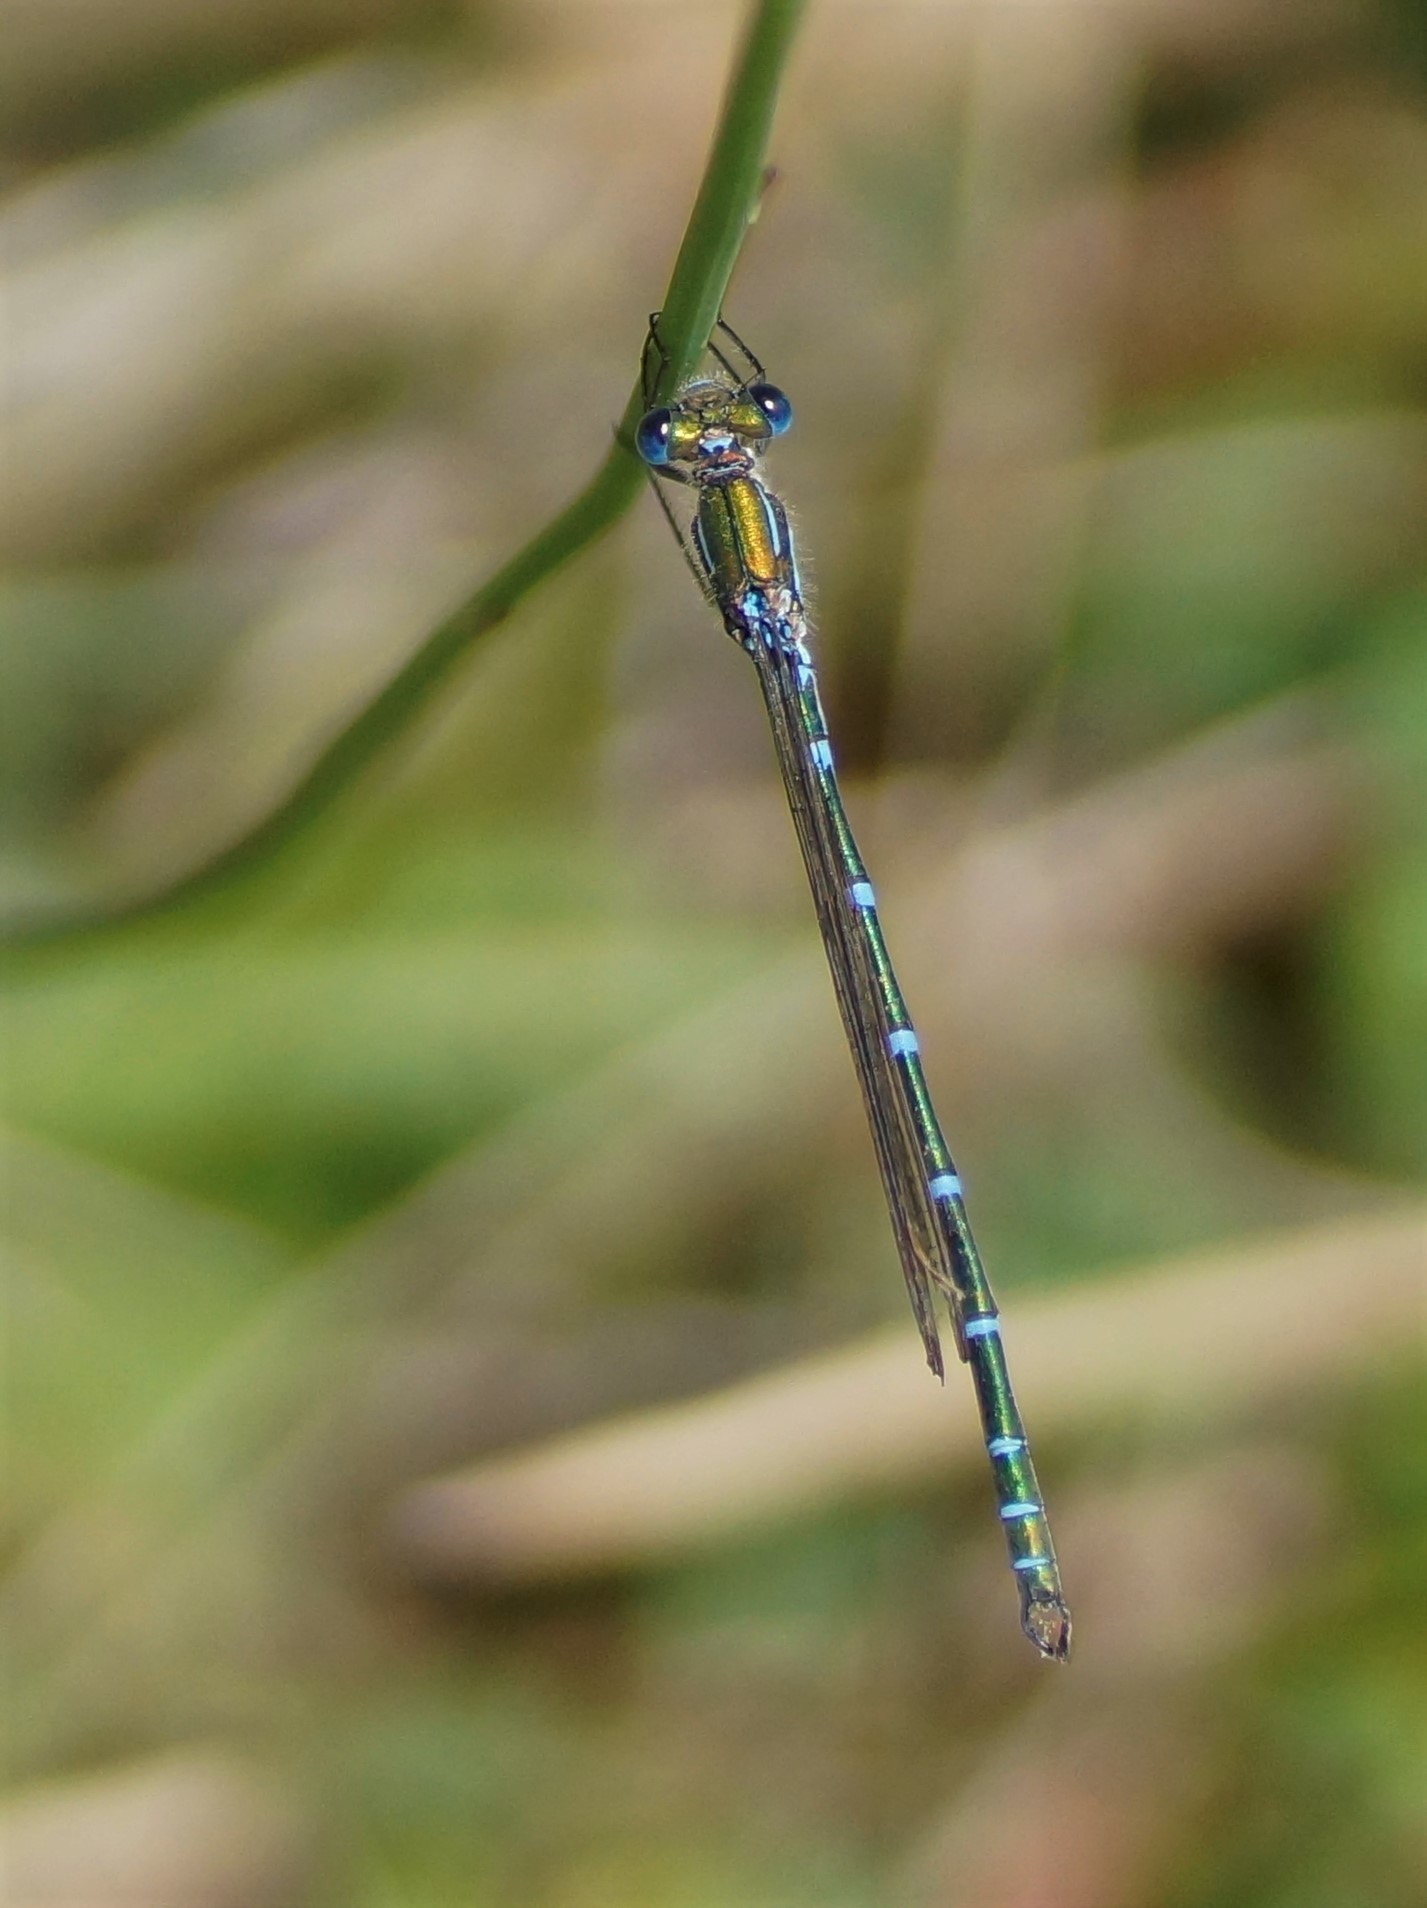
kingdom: Animalia
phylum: Arthropoda
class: Insecta
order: Odonata
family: Lestidae
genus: Austrolestes
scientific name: Austrolestes cingulatus
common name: Metallic ringtail
